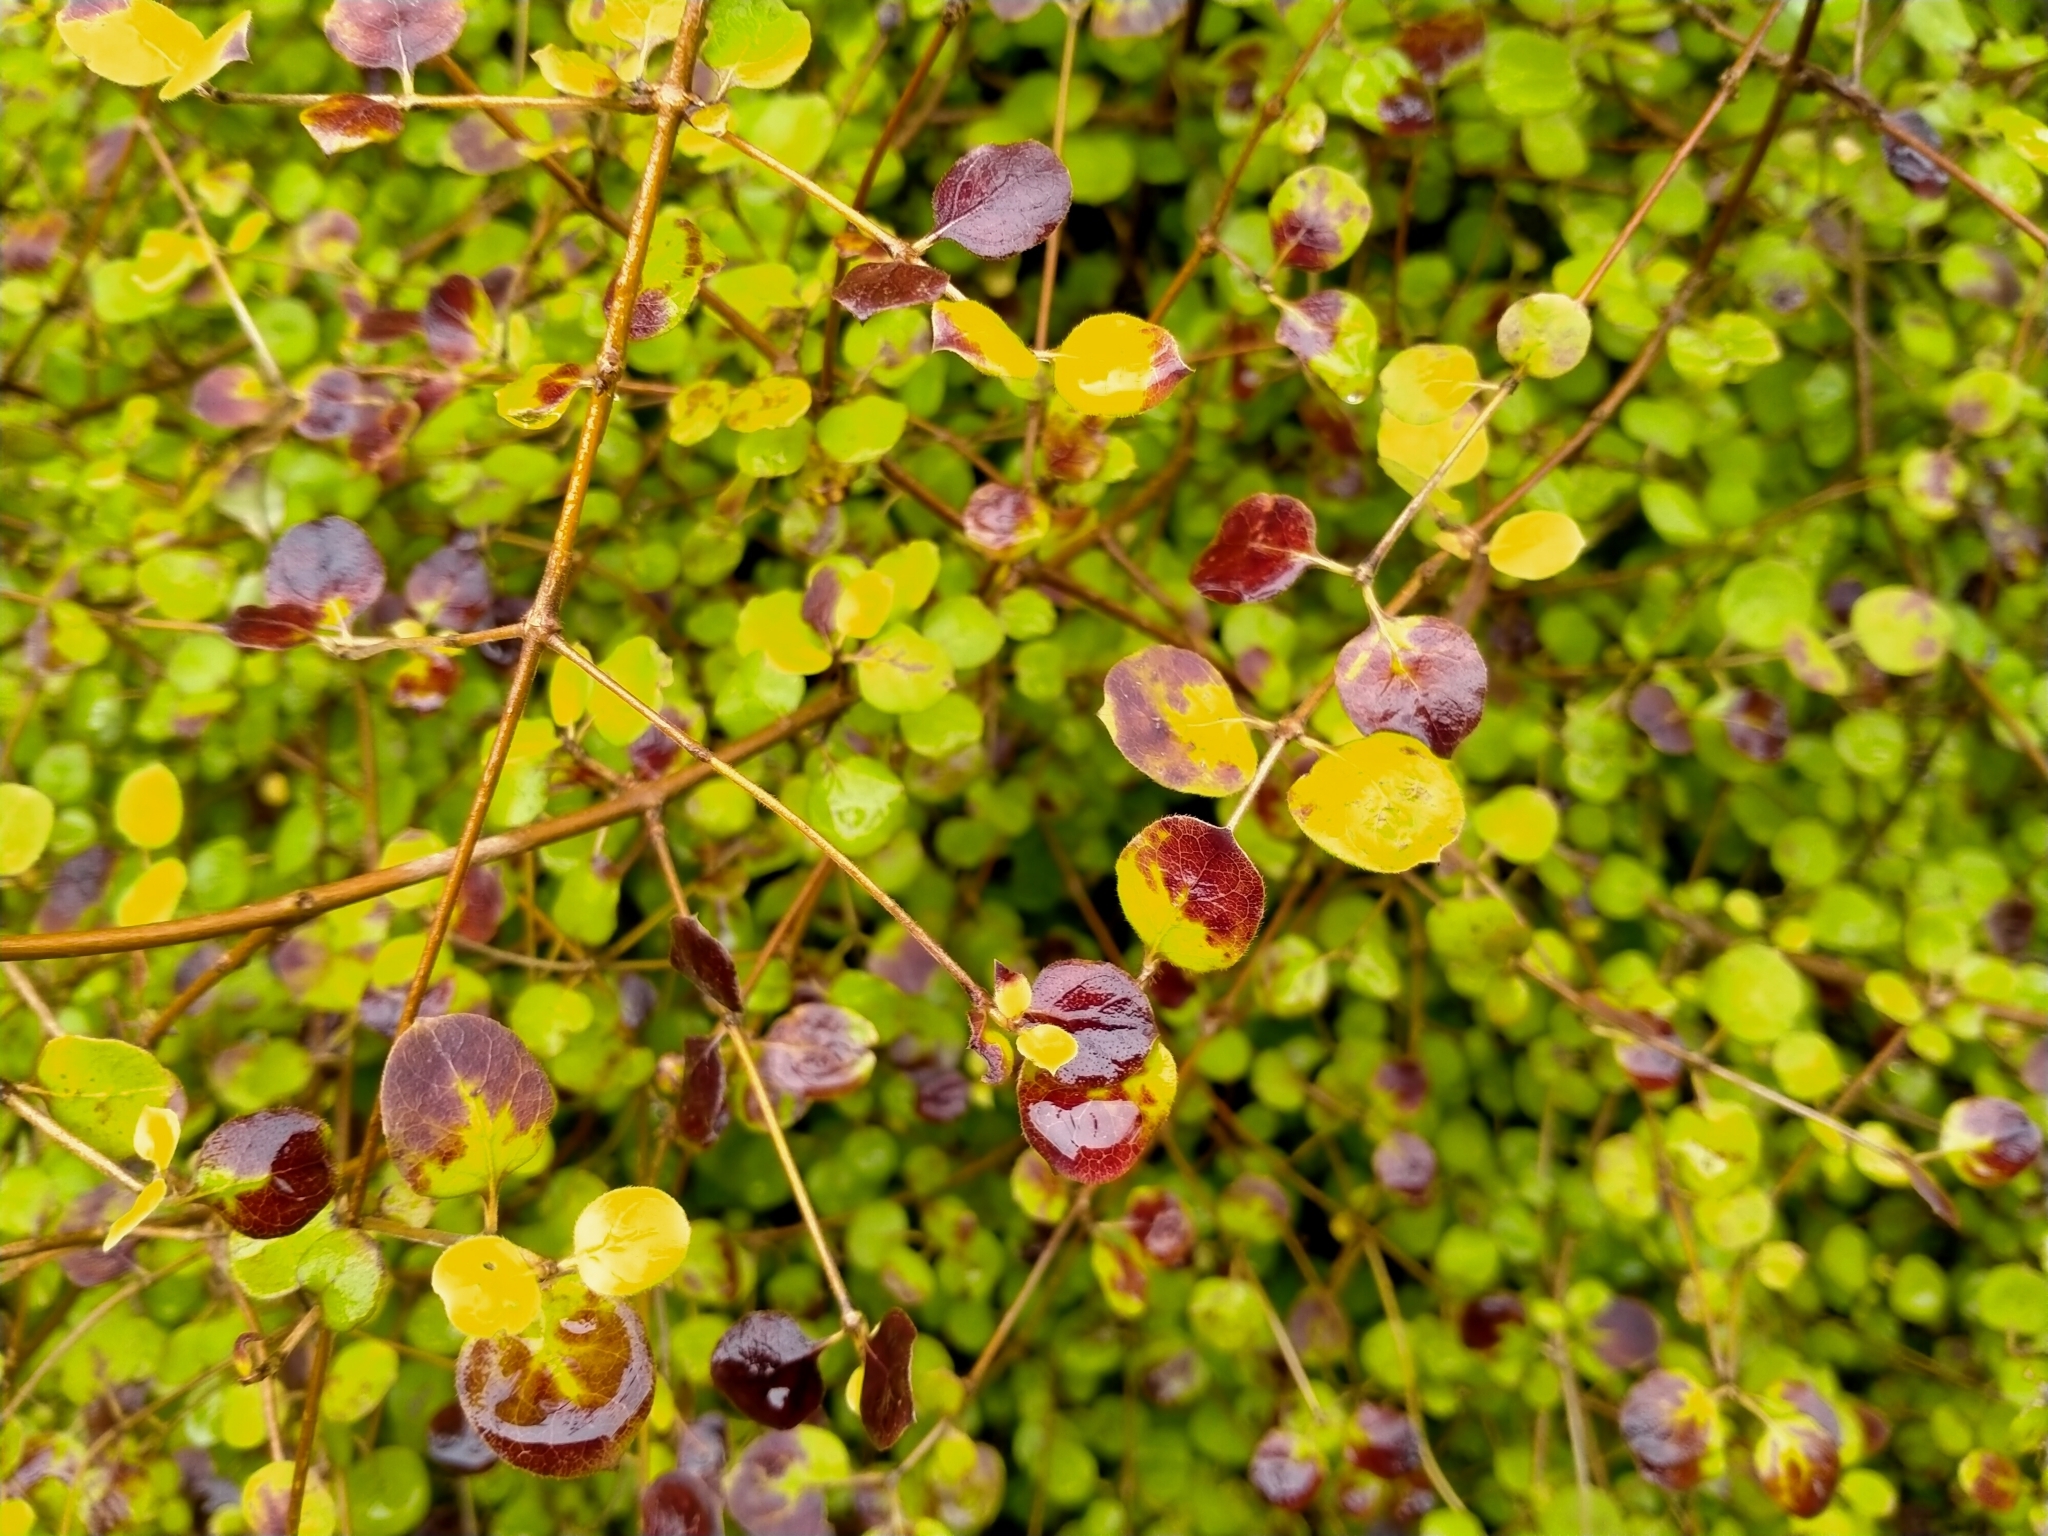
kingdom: Plantae
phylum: Tracheophyta
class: Magnoliopsida
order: Gentianales
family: Rubiaceae
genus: Coprosma
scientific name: Coprosma rotundifolia
